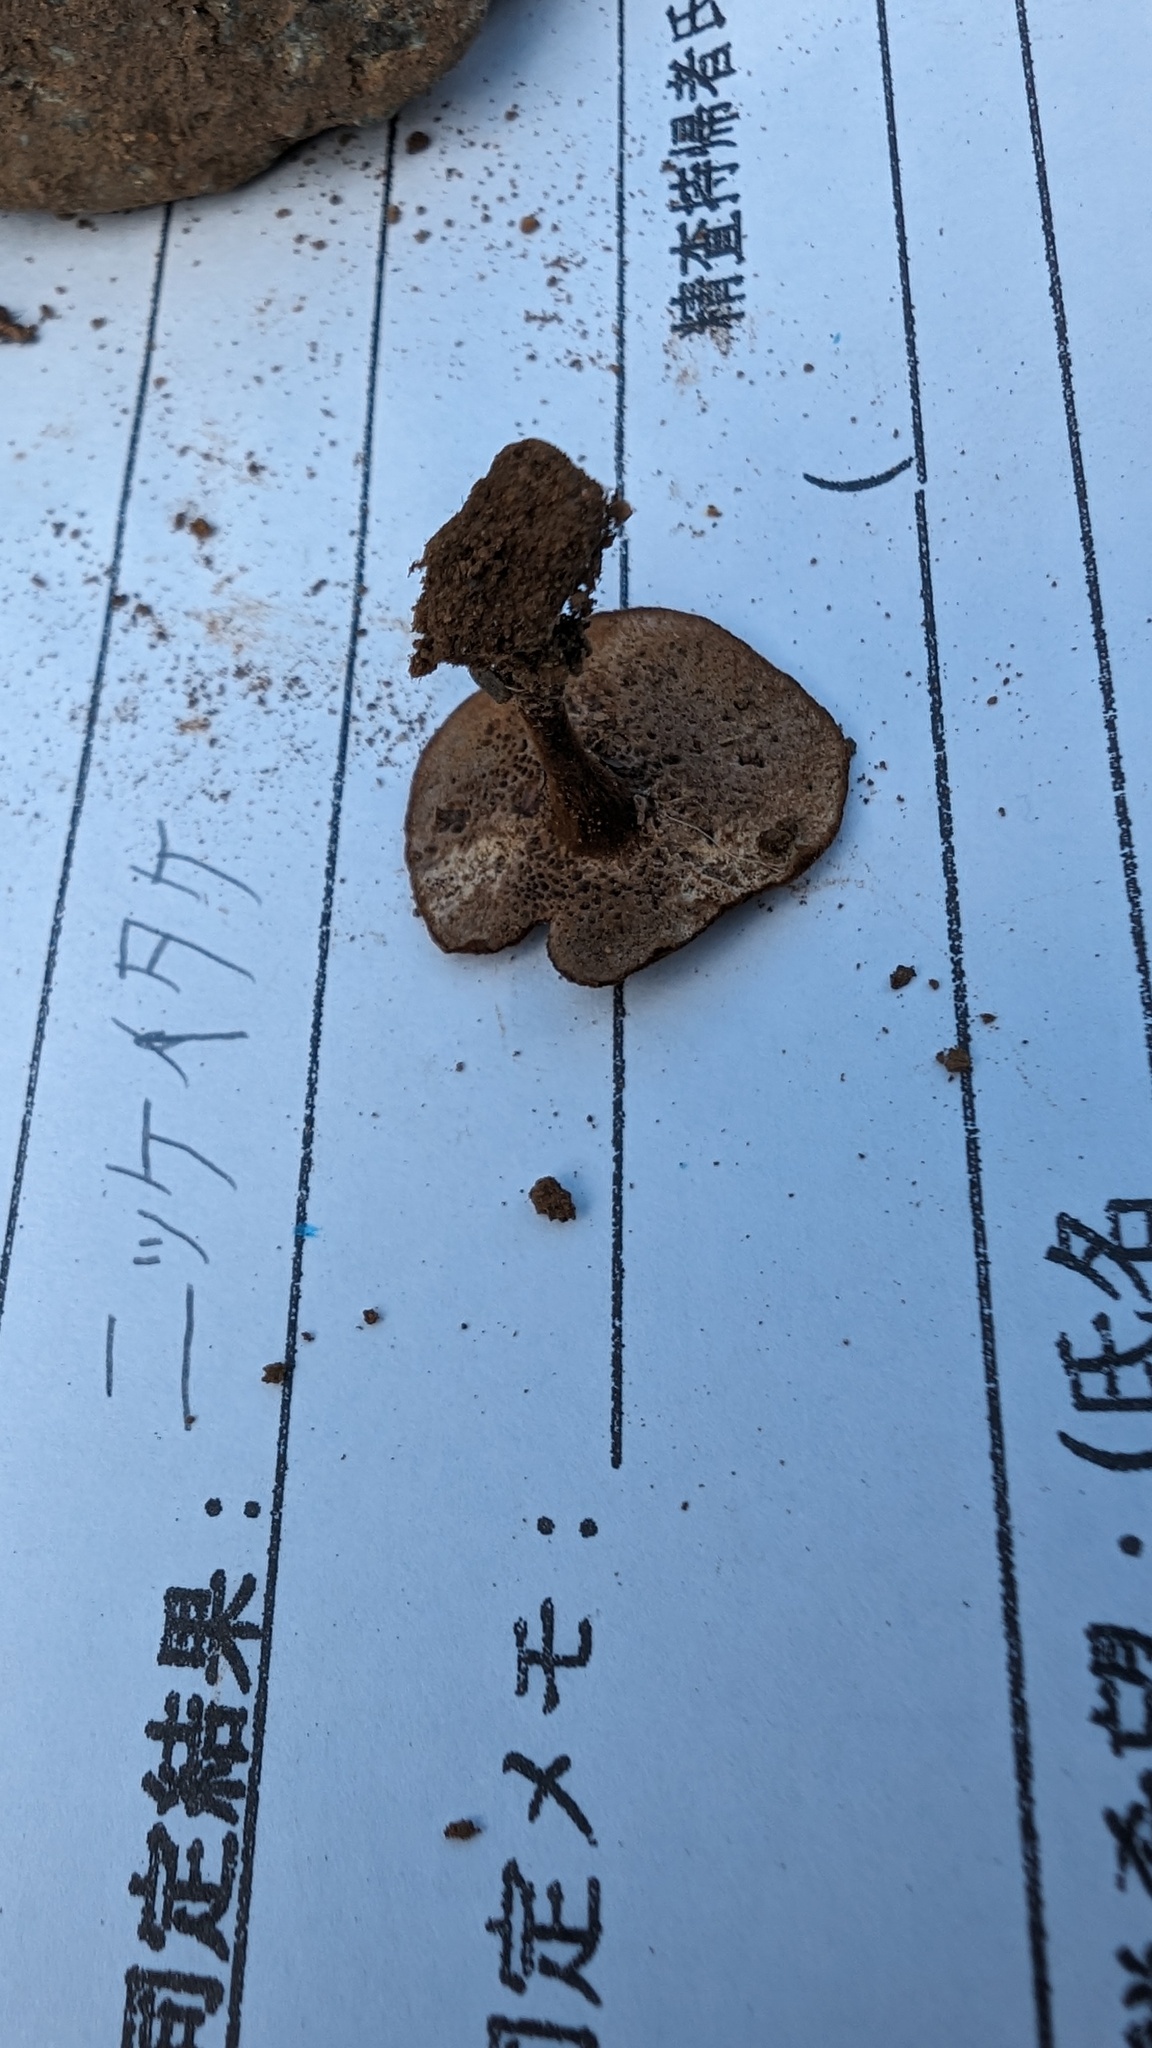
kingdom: Fungi
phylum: Basidiomycota
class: Agaricomycetes
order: Hymenochaetales
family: Hymenochaetaceae
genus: Coltricia
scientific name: Coltricia cinnamomea
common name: Shiny cinnamon polypore
